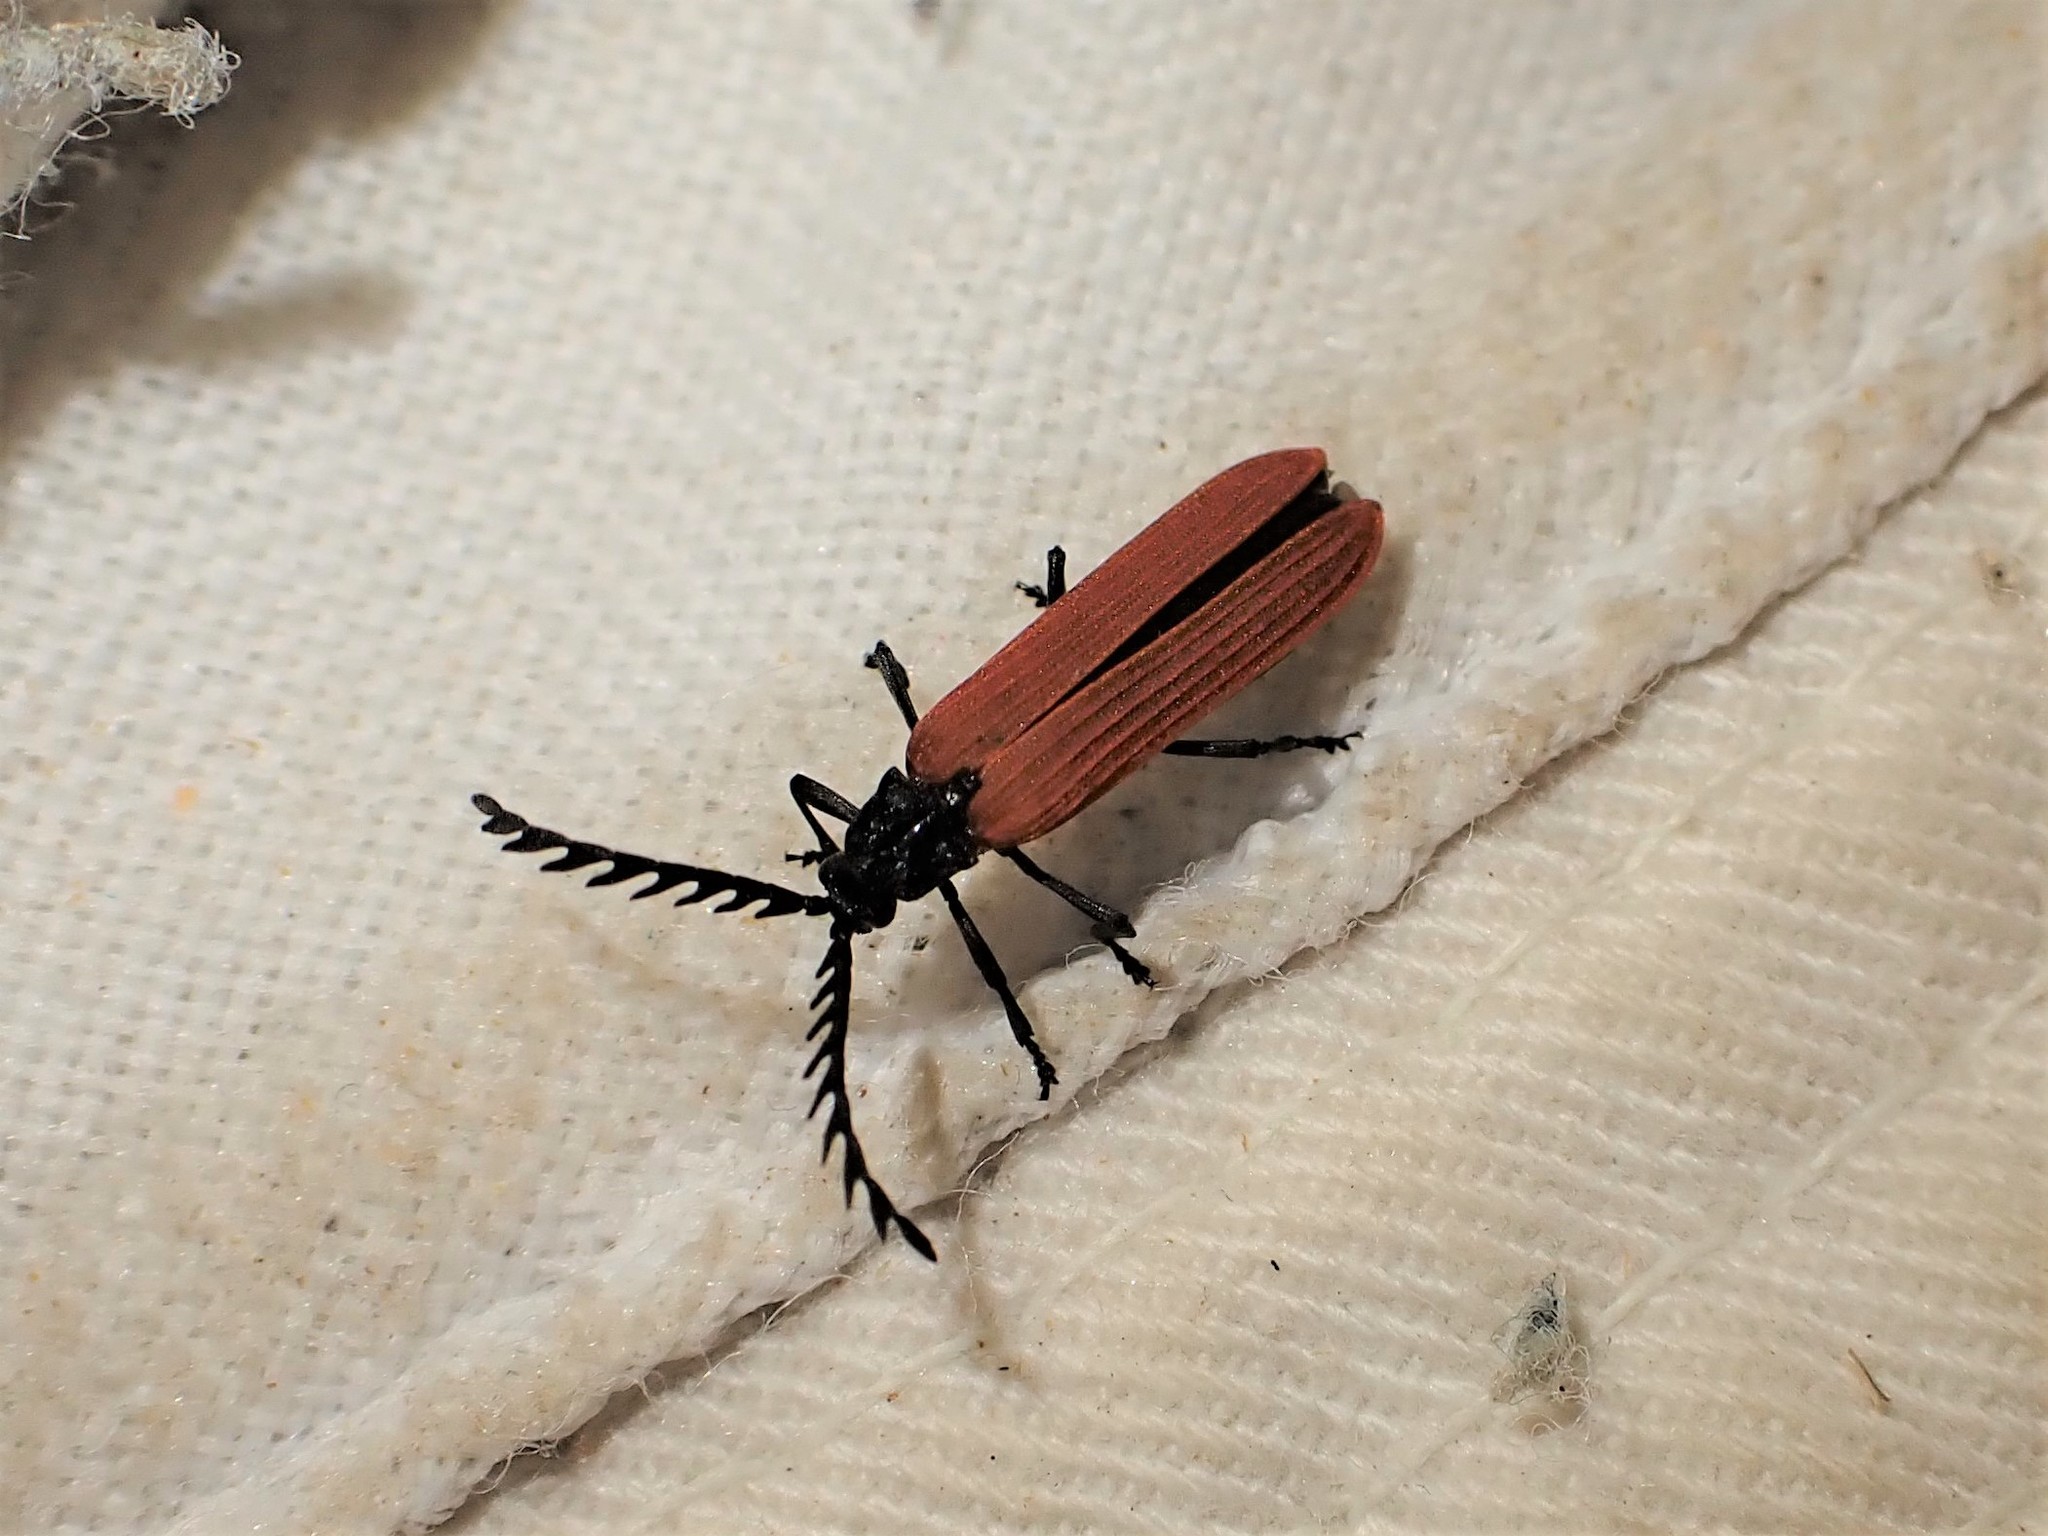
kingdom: Animalia
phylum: Arthropoda
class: Insecta
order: Coleoptera
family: Lycidae
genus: Porrostoma
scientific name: Porrostoma rufipenne
